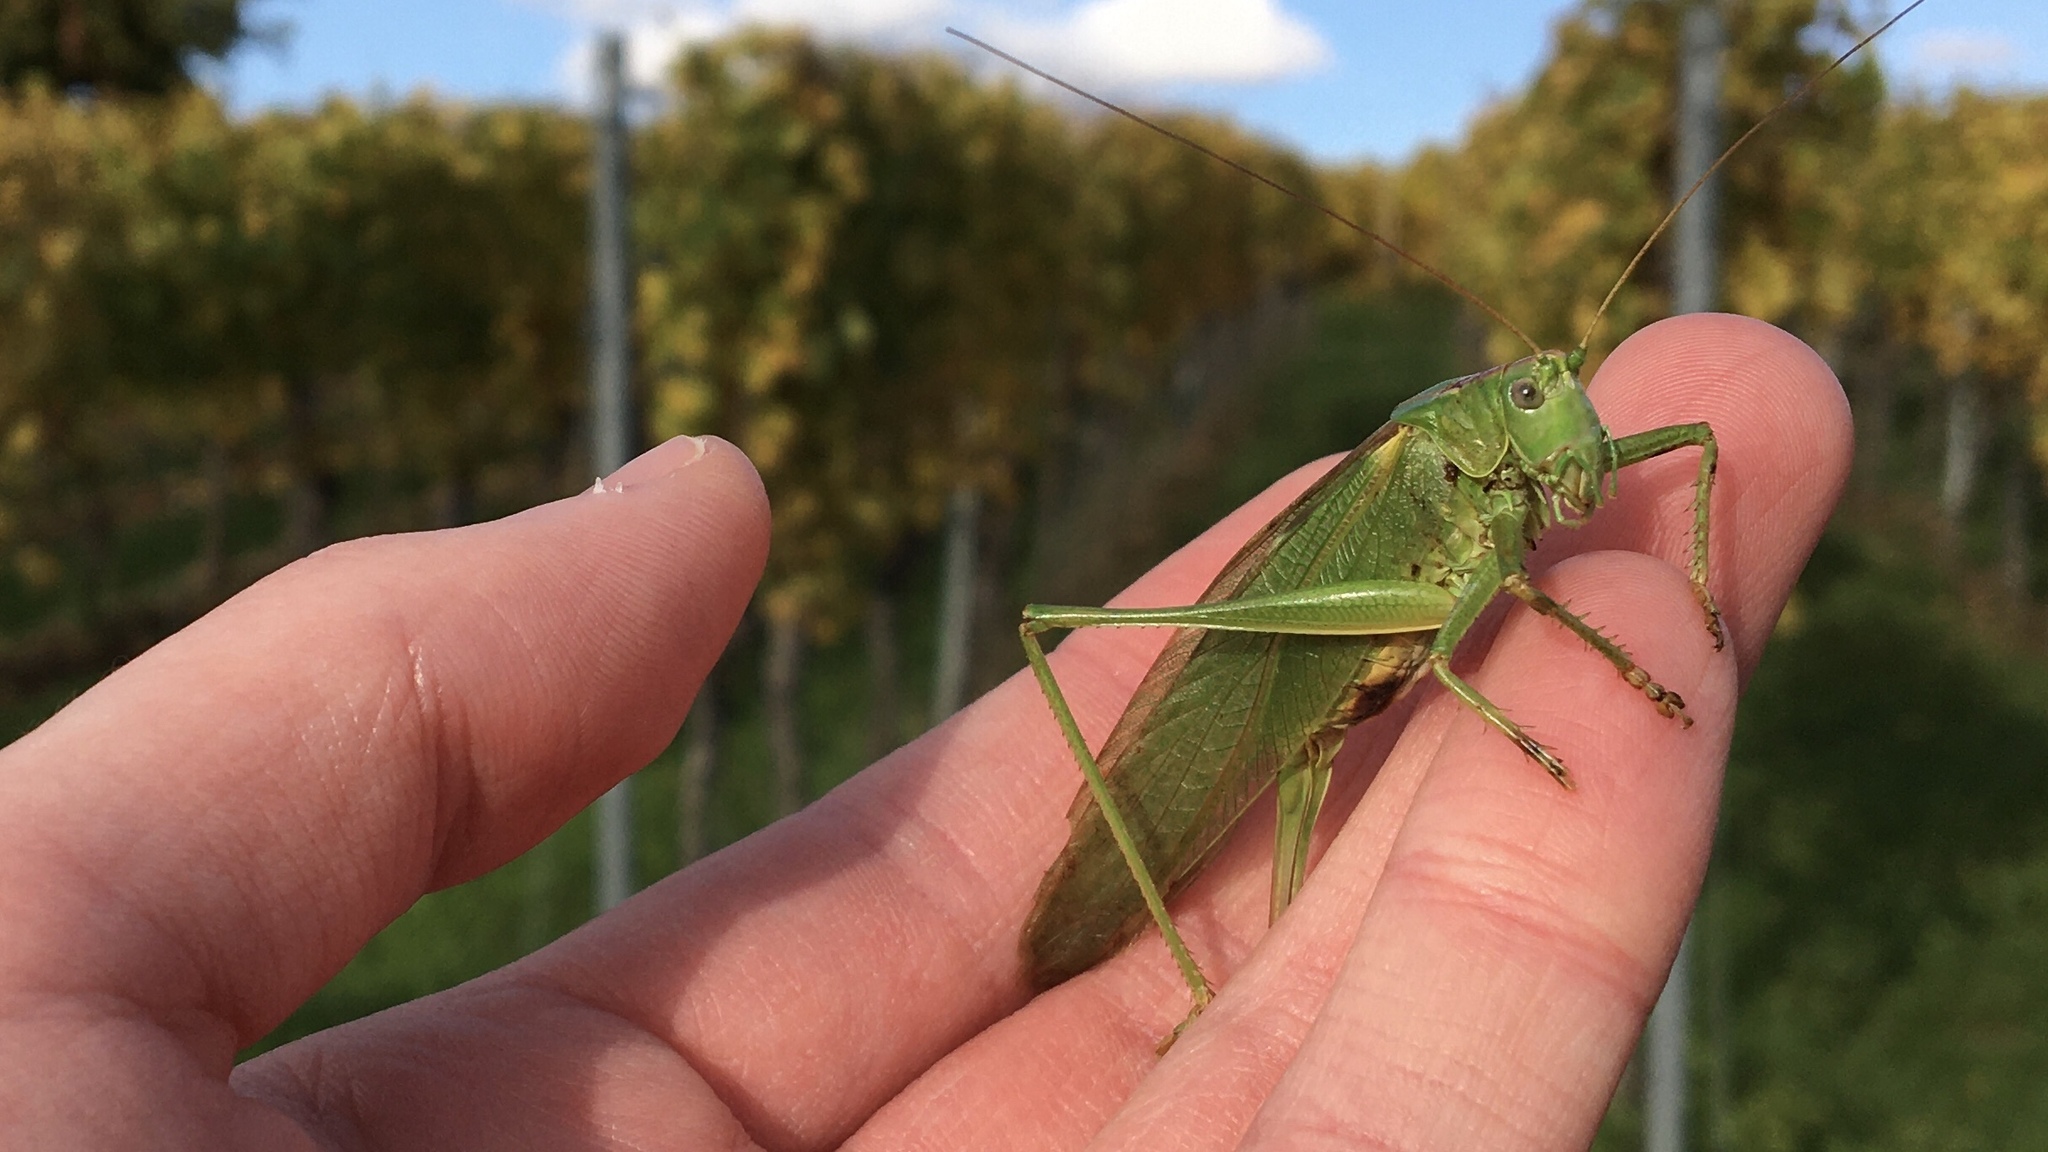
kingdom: Animalia
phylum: Arthropoda
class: Insecta
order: Orthoptera
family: Tettigoniidae
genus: Tettigonia
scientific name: Tettigonia viridissima
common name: Great green bush-cricket
